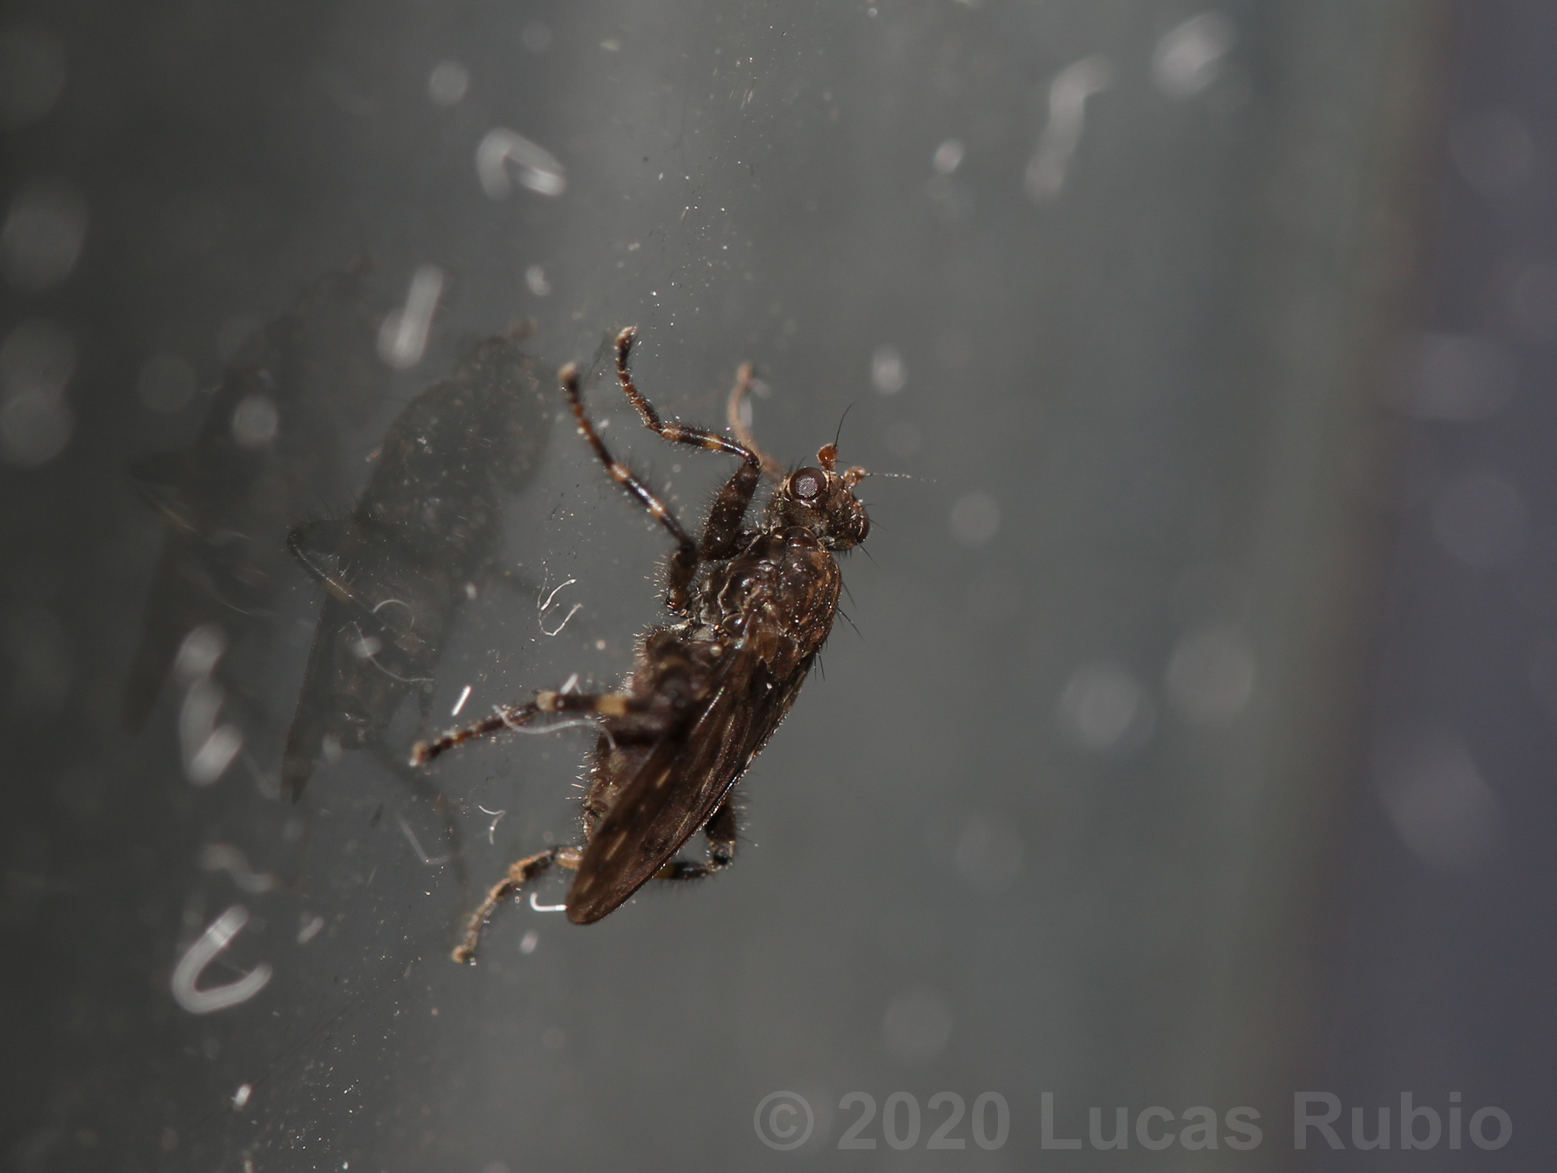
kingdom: Animalia
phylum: Arthropoda
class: Insecta
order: Diptera
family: Sphaeroceridae
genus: Maculantrops
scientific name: Maculantrops hirtipes
